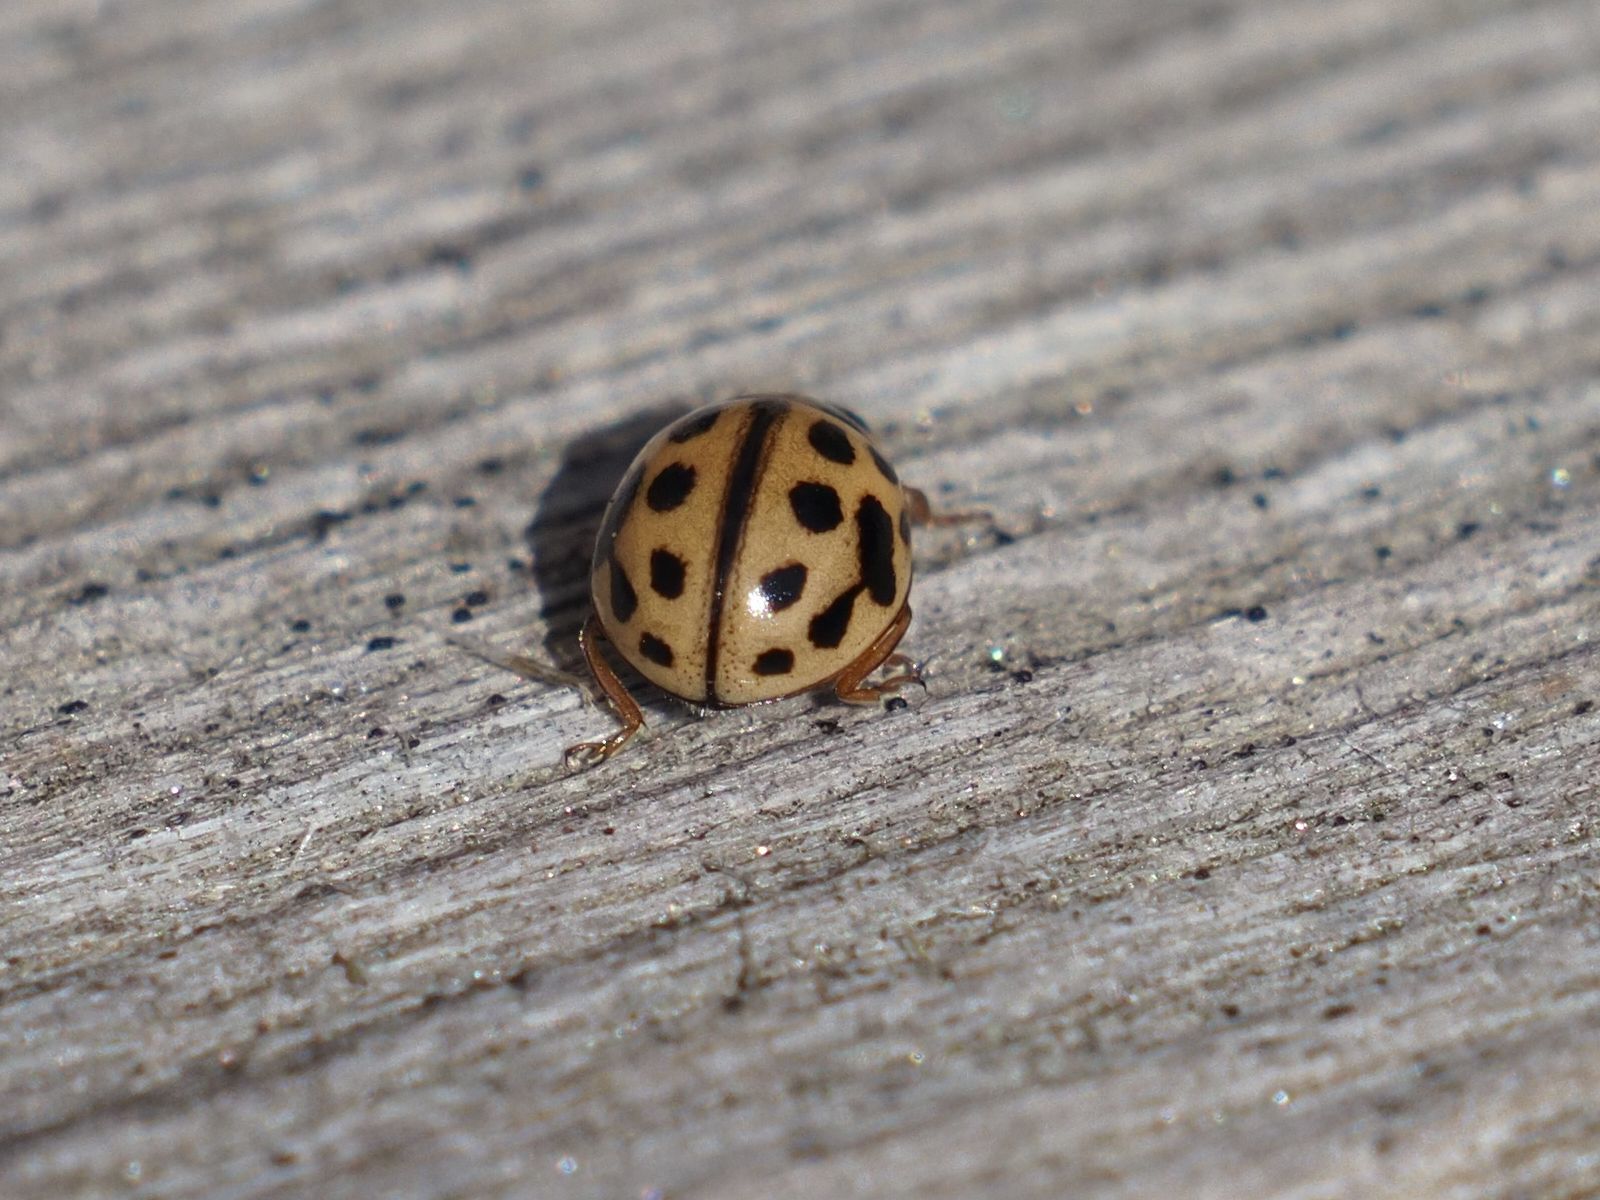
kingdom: Animalia
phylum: Arthropoda
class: Insecta
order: Coleoptera
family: Coccinellidae
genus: Tytthaspis
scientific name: Tytthaspis sedecimpunctata
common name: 16-spot ladybird
